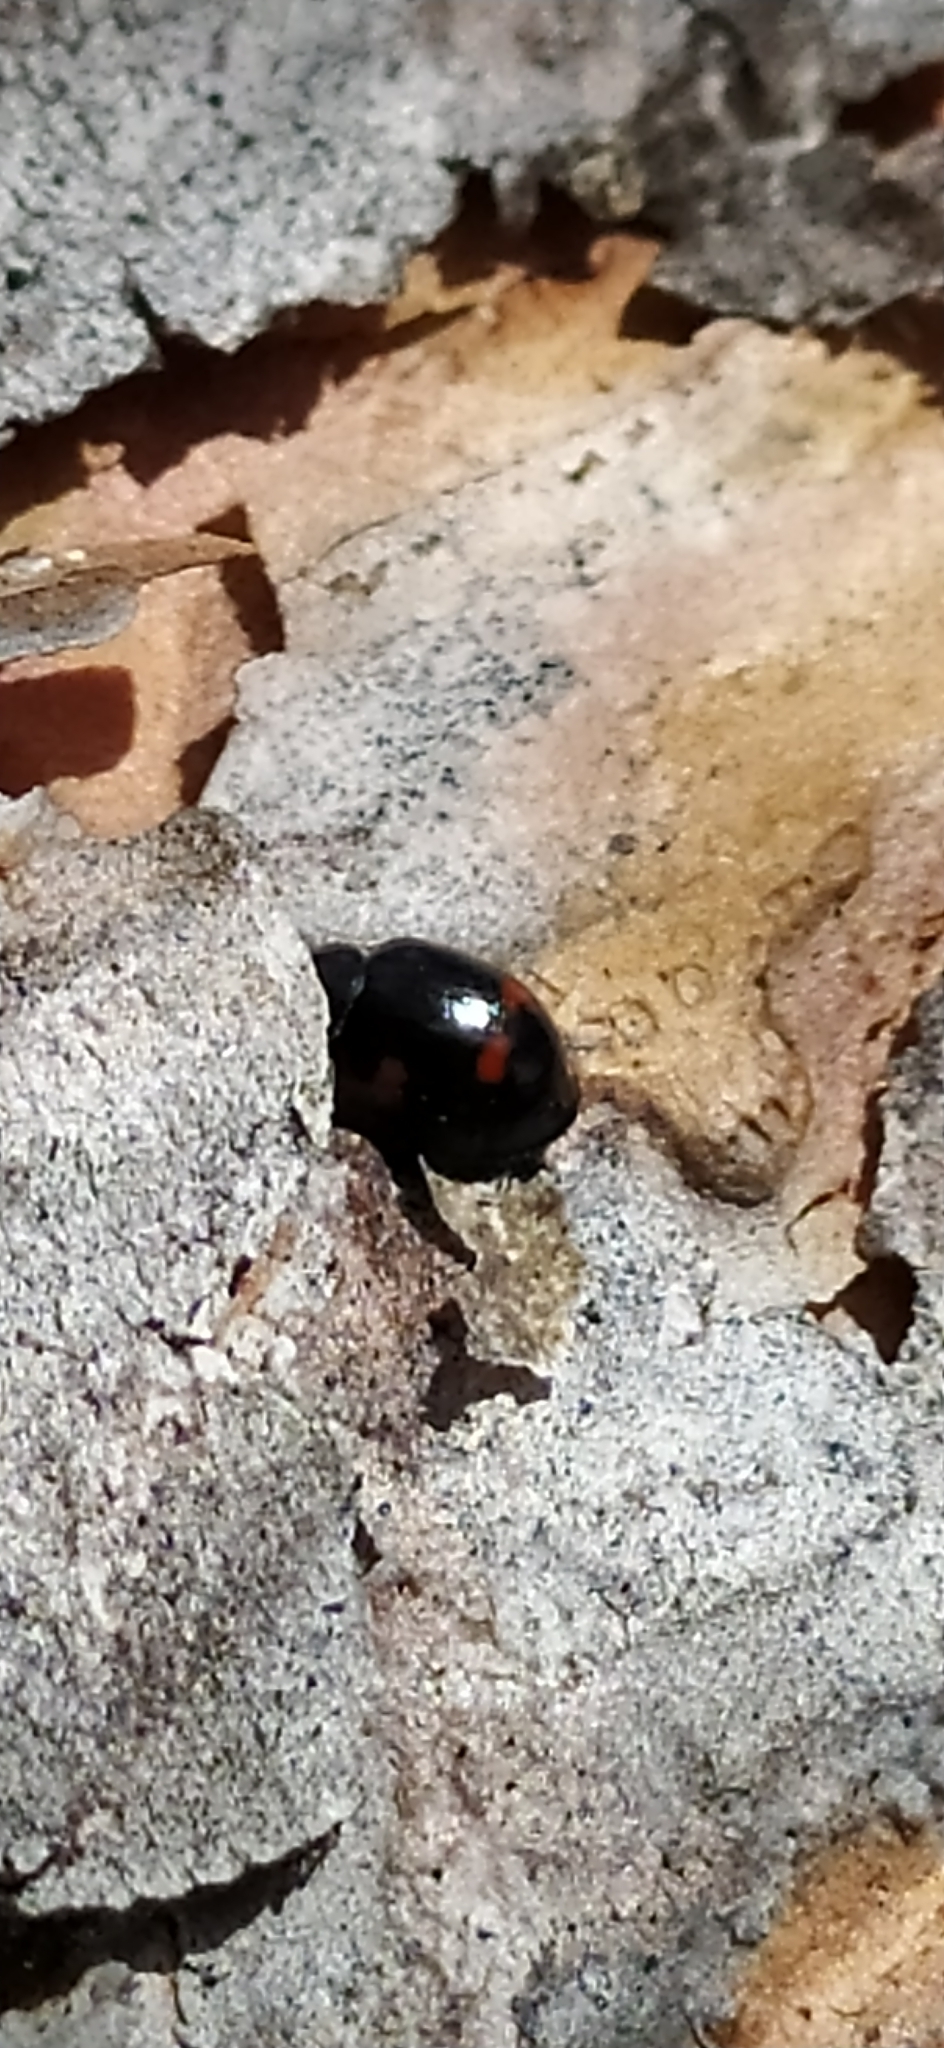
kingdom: Animalia
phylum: Arthropoda
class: Insecta
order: Coleoptera
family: Coccinellidae
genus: Brumus
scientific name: Brumus quadripustulatus
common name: Ladybird beetle
